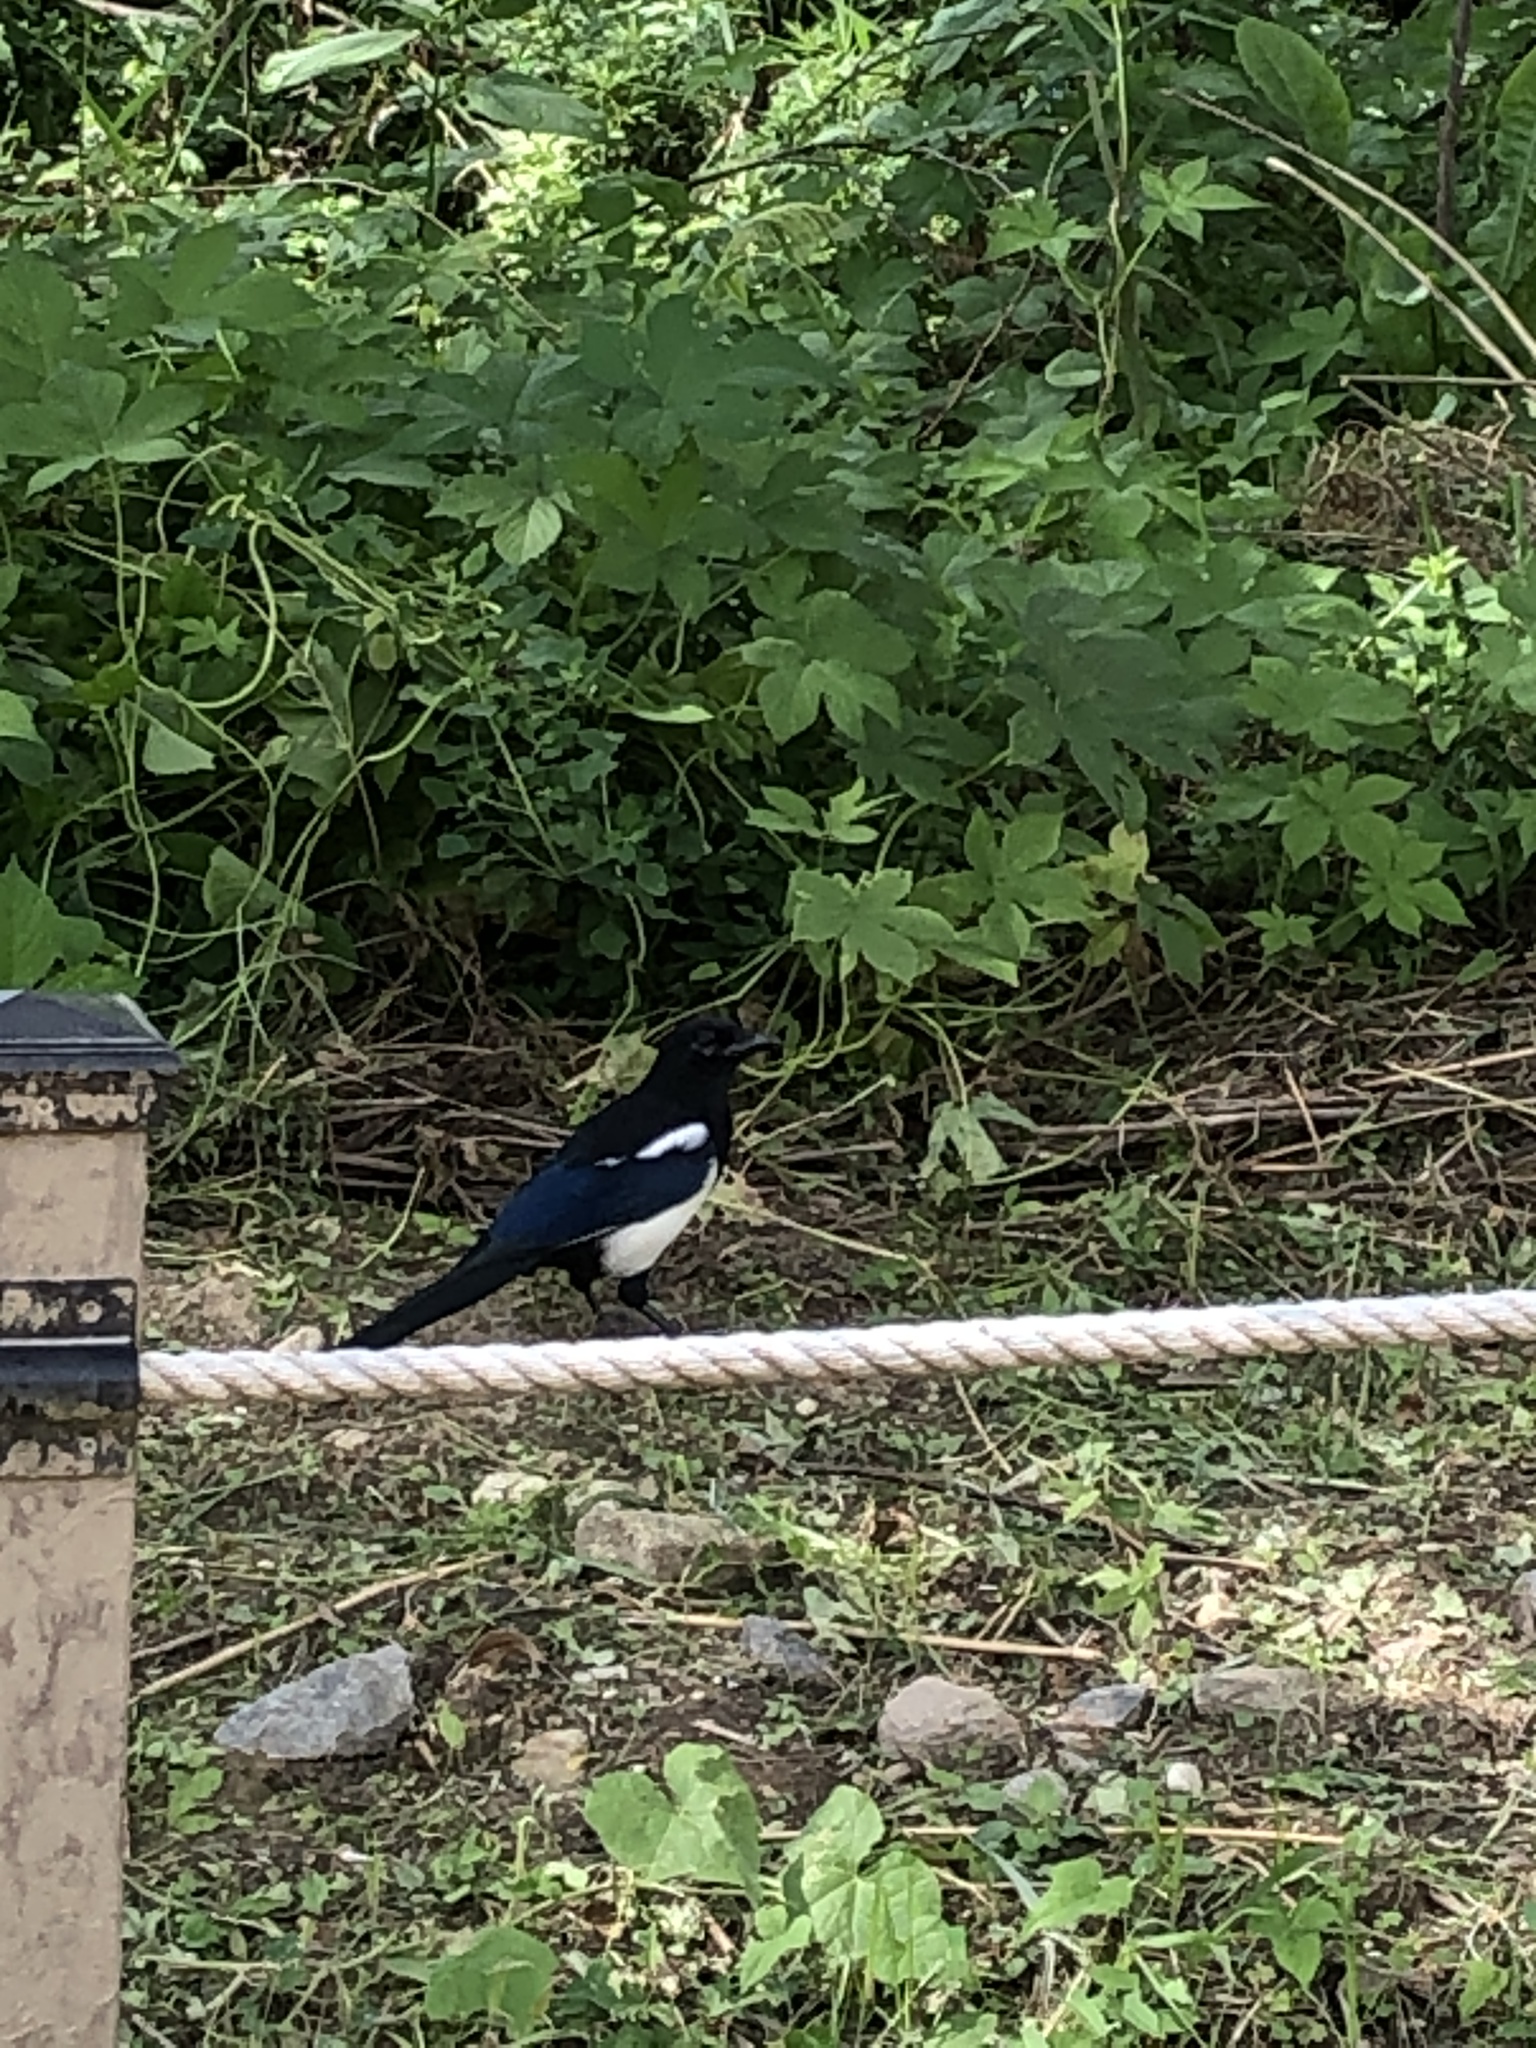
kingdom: Animalia
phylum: Chordata
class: Aves
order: Passeriformes
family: Corvidae
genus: Pica
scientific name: Pica serica
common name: Oriental magpie
